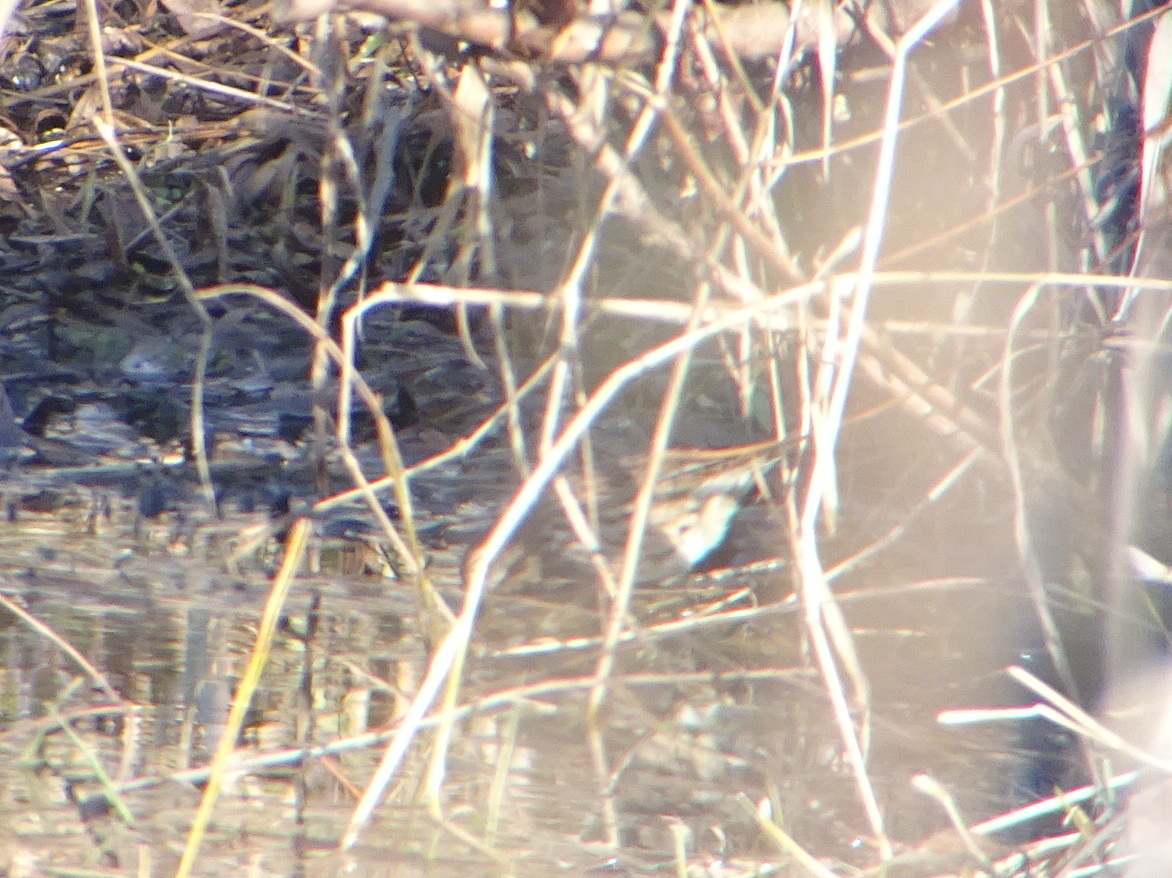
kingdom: Animalia
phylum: Chordata
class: Aves
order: Passeriformes
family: Passerellidae
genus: Melospiza
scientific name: Melospiza melodia
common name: Song sparrow
